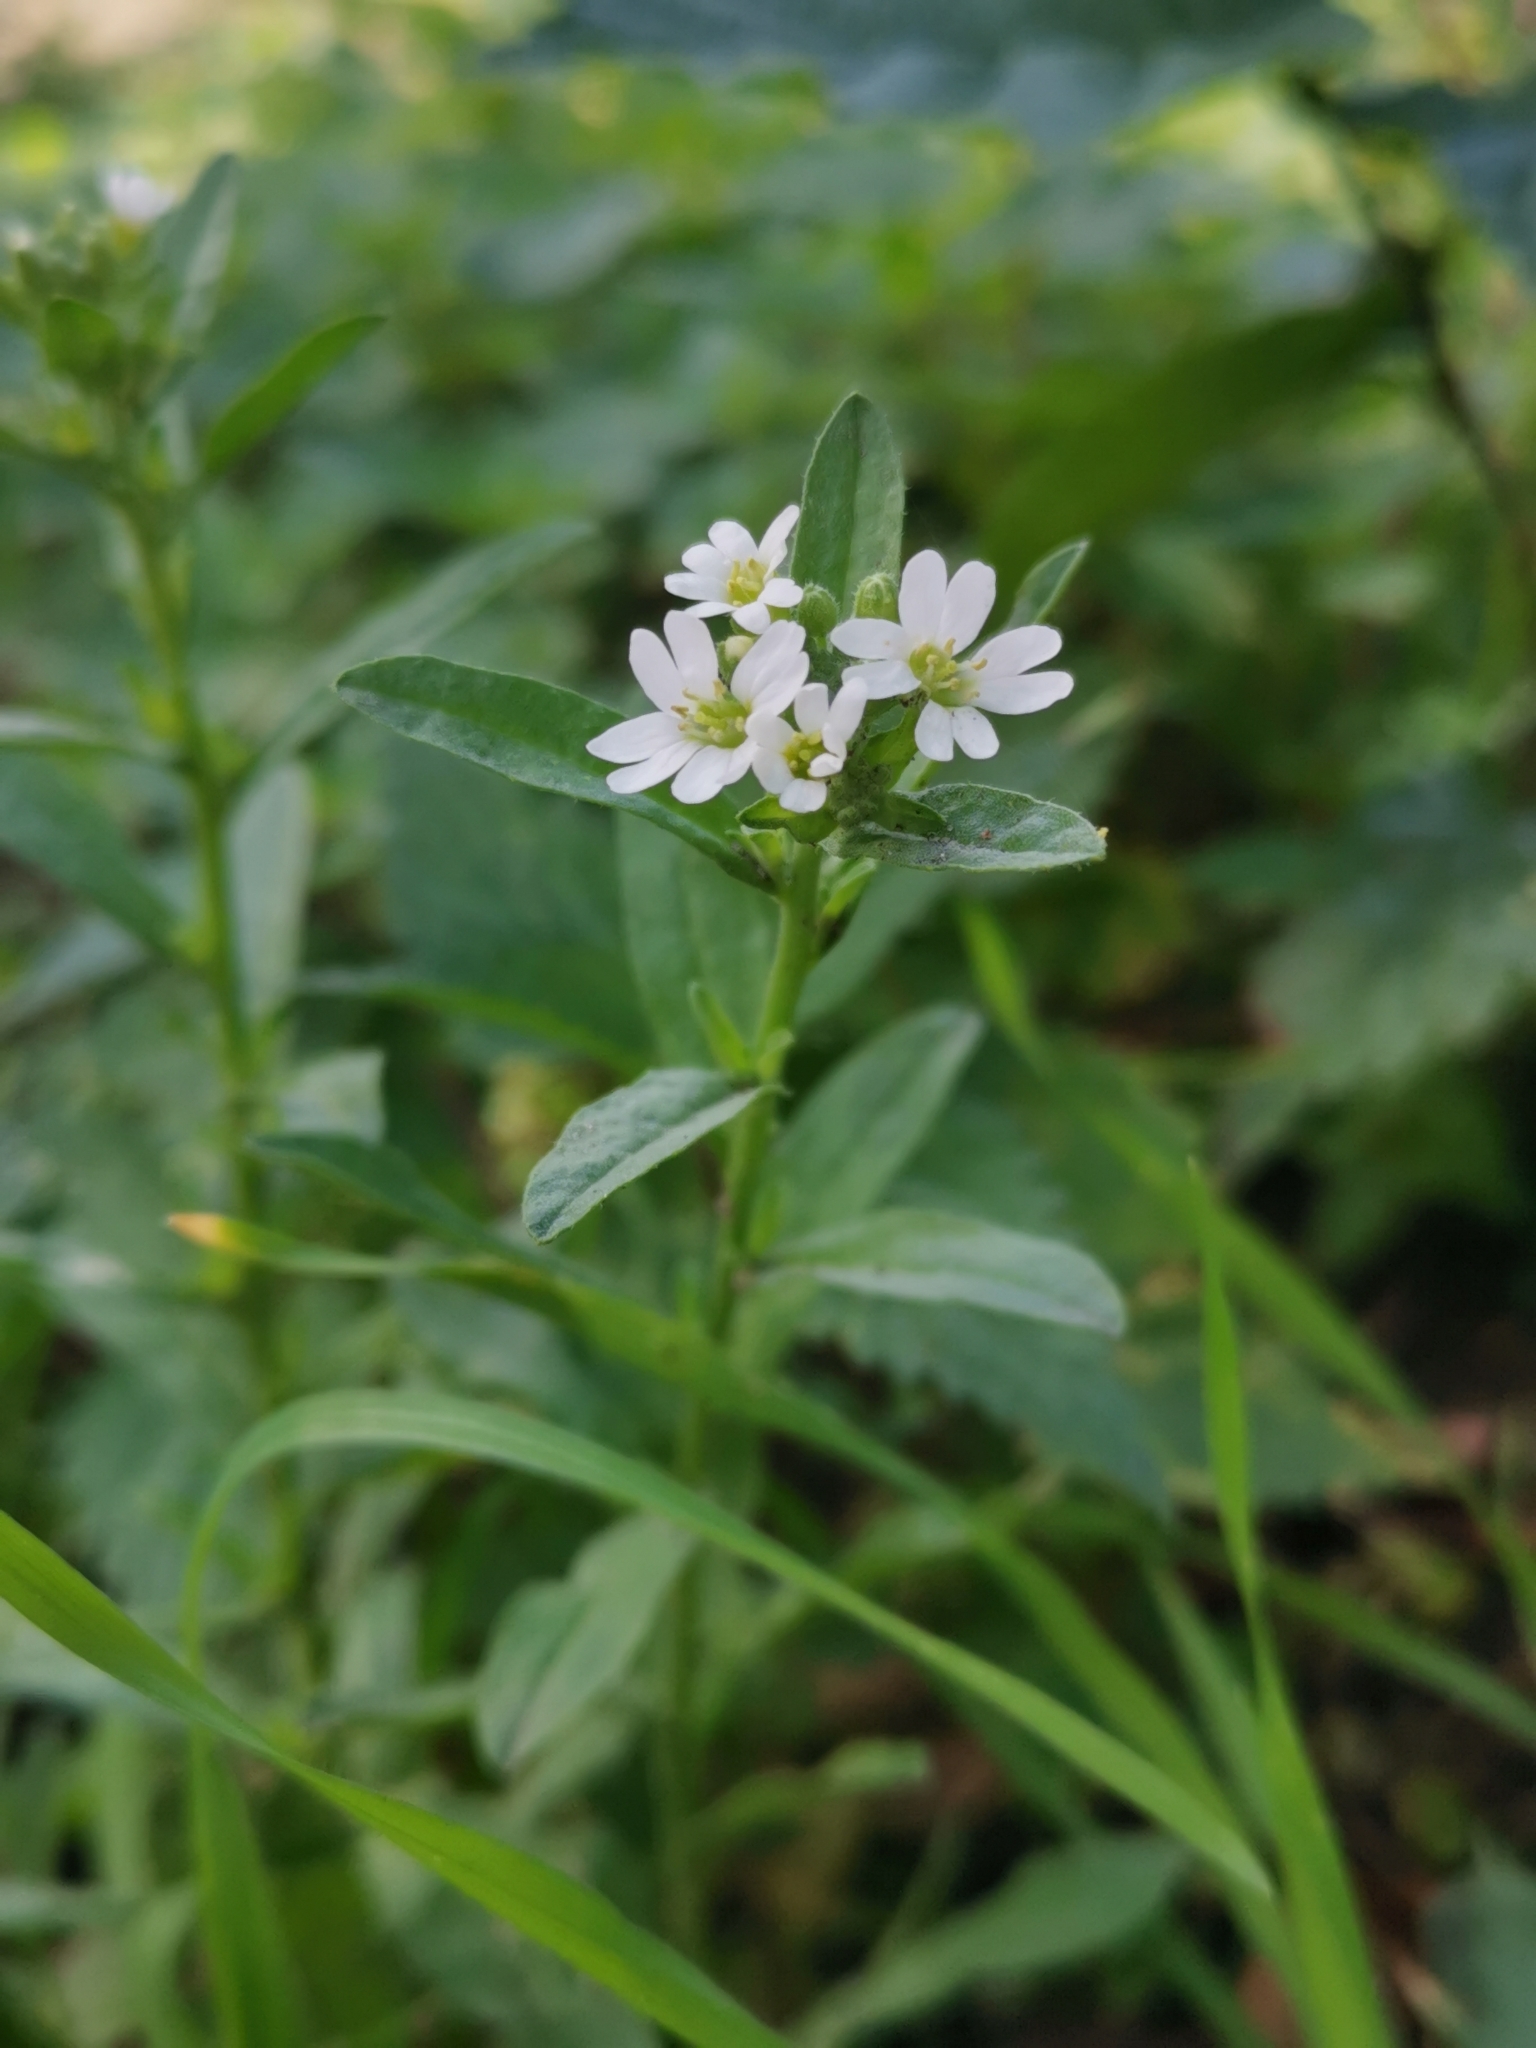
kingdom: Plantae
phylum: Tracheophyta
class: Magnoliopsida
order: Brassicales
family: Brassicaceae
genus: Berteroa
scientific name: Berteroa incana
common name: Hoary alison
